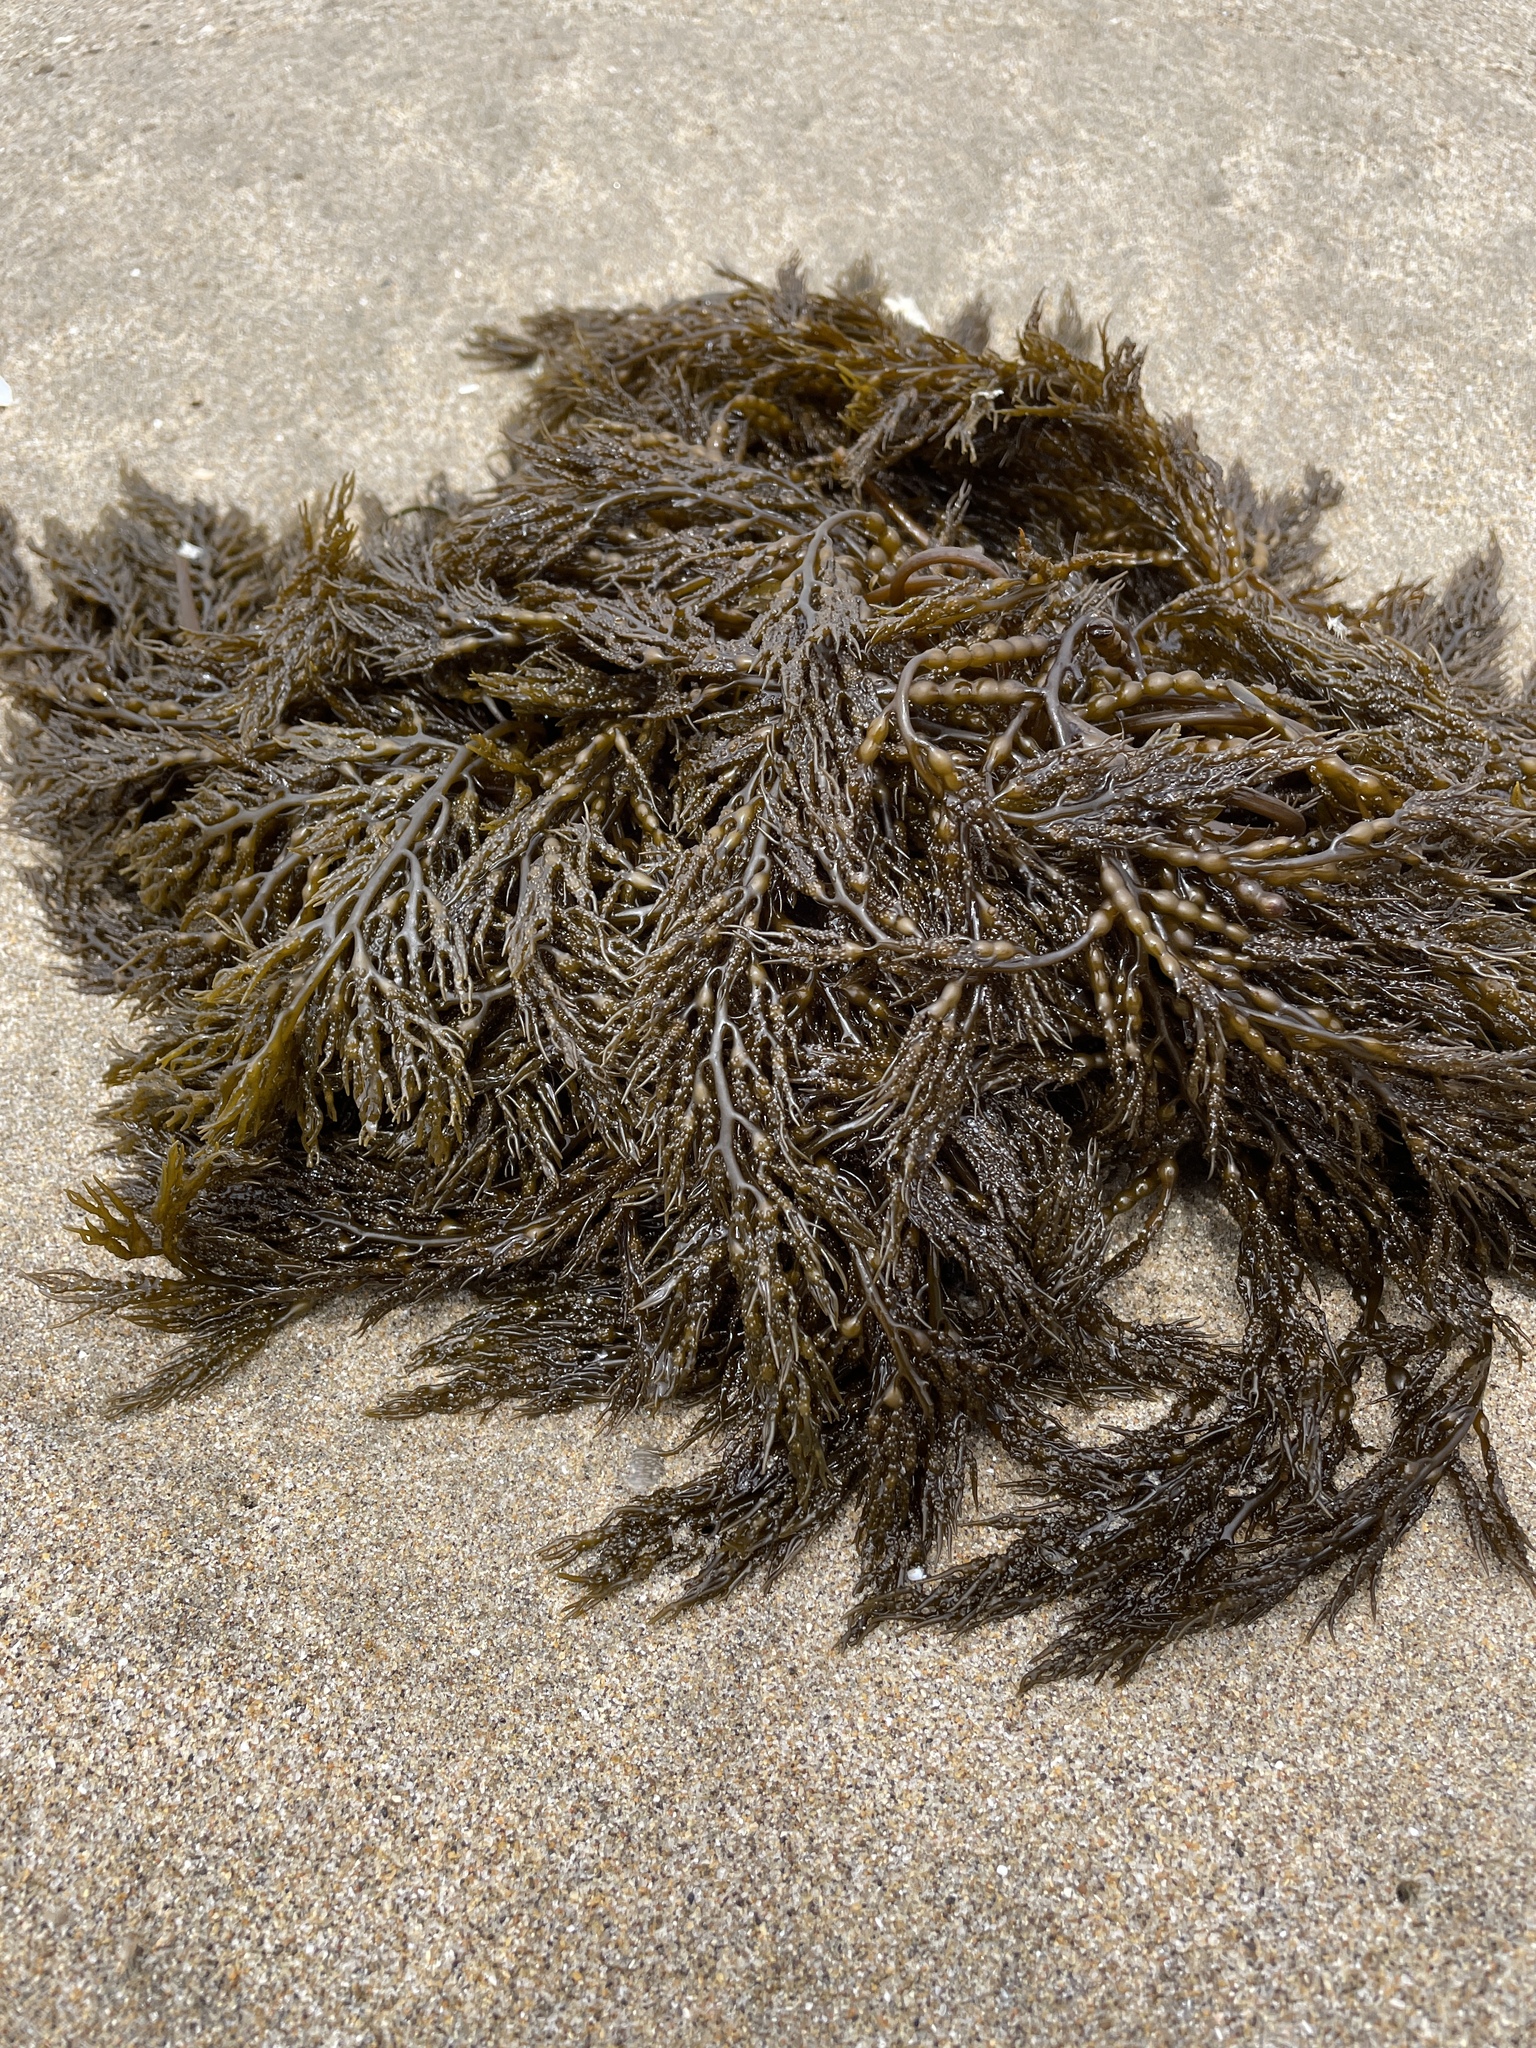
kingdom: Chromista
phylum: Ochrophyta
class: Phaeophyceae
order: Fucales
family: Sargassaceae
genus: Stephanocystis
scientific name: Stephanocystis
